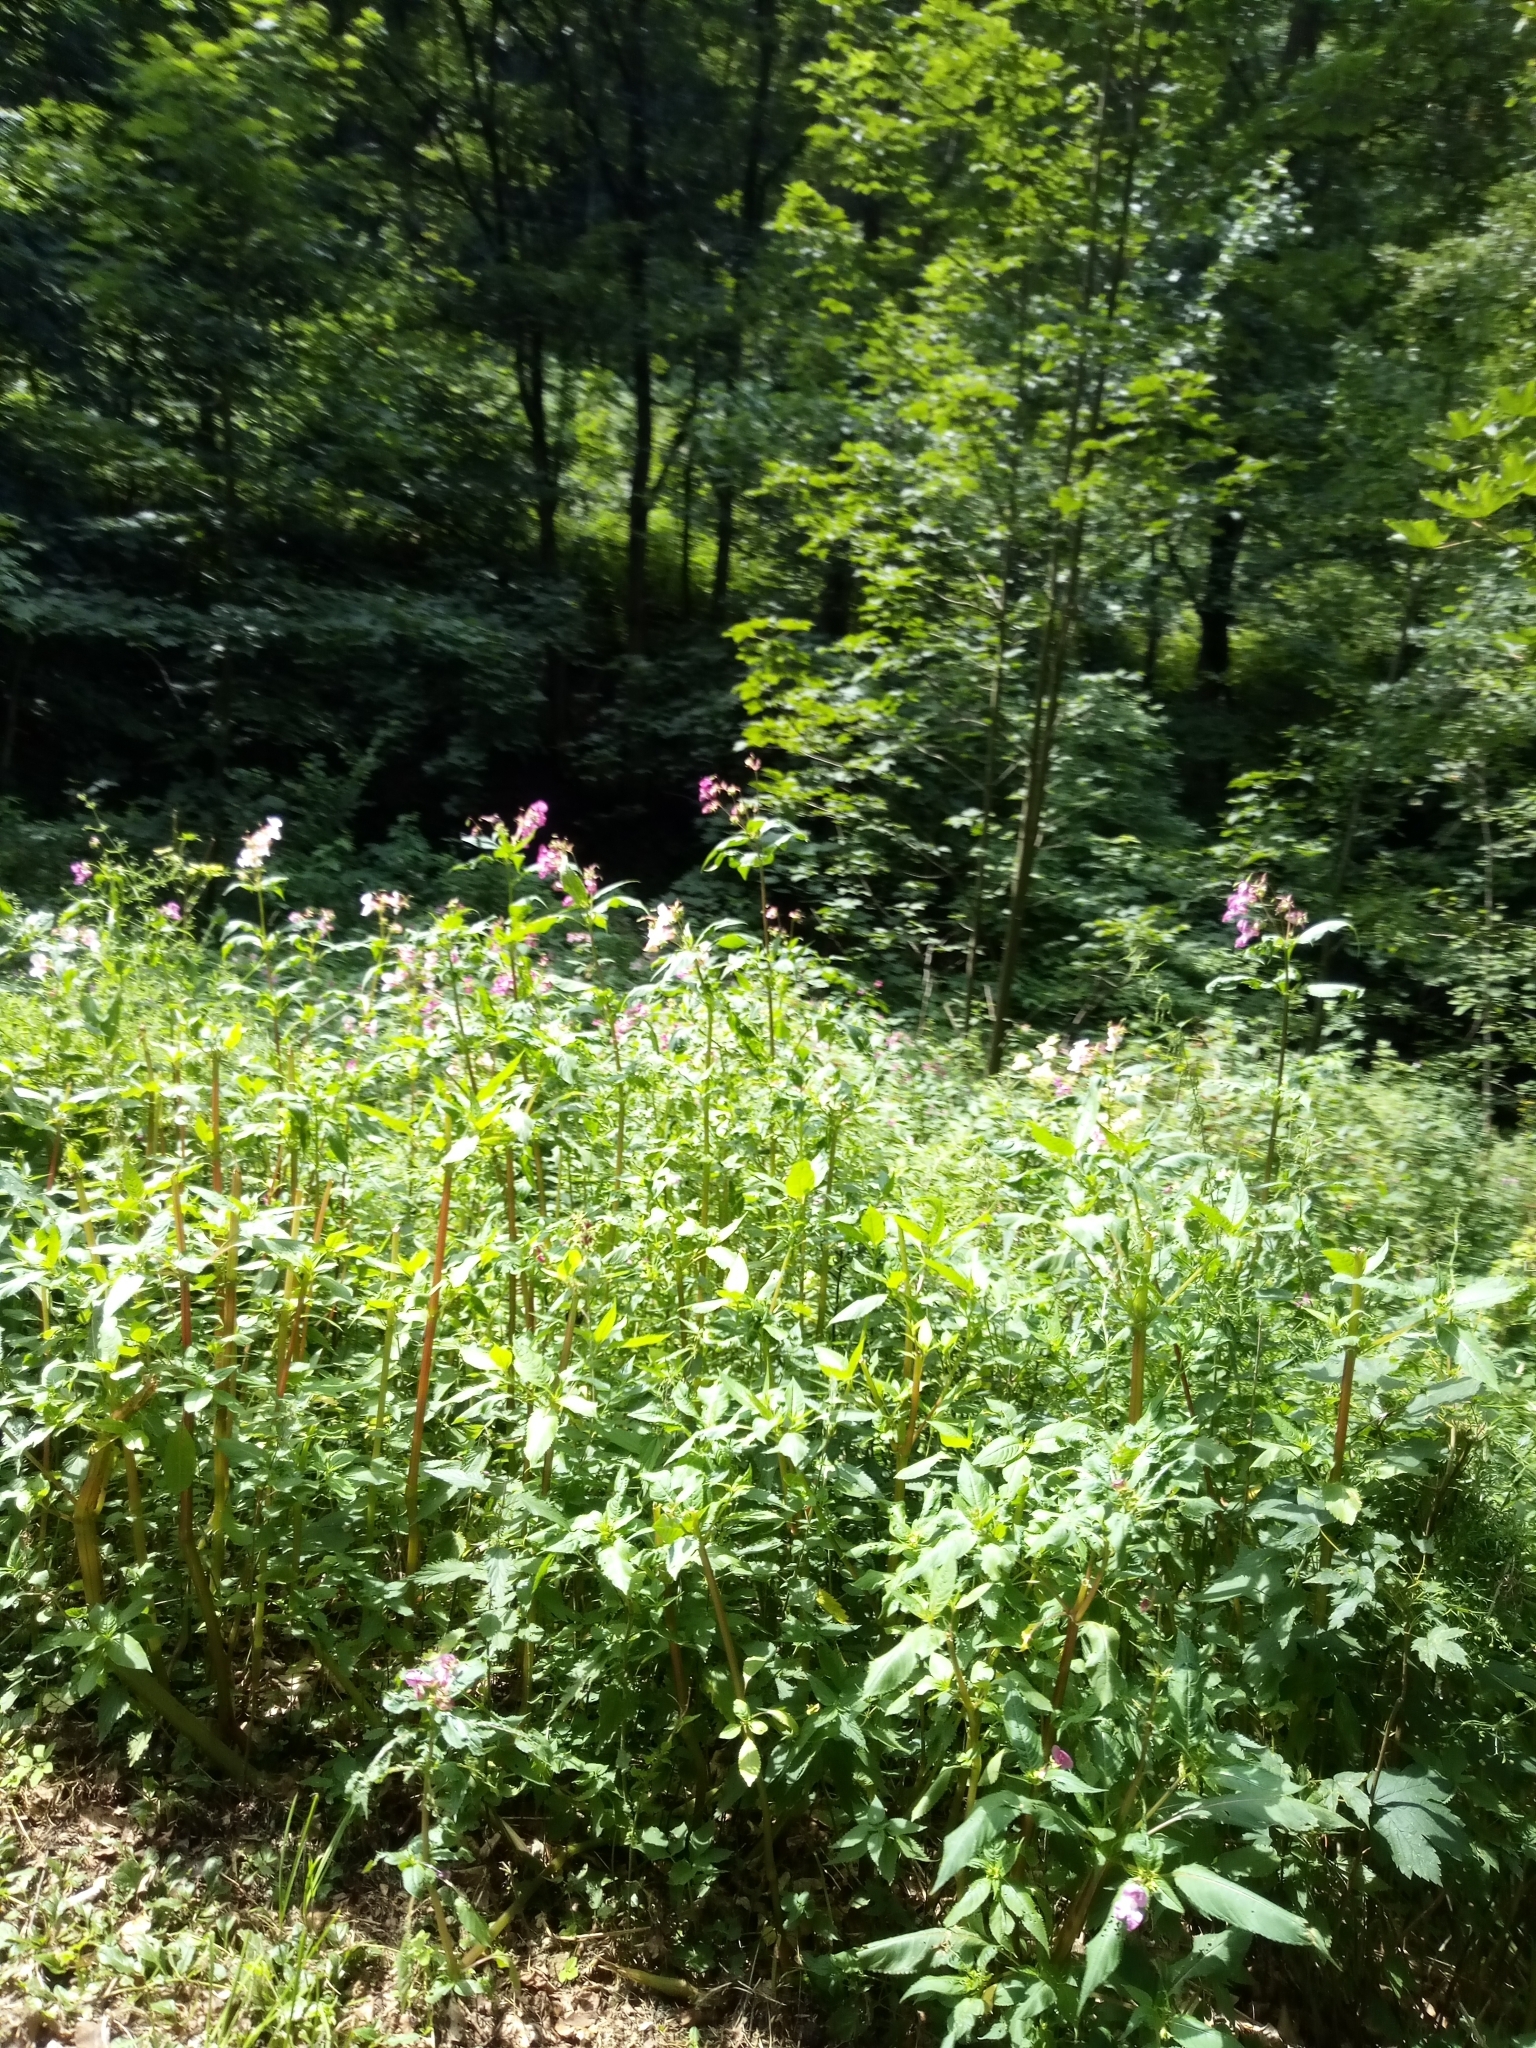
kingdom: Plantae
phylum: Tracheophyta
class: Magnoliopsida
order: Ericales
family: Balsaminaceae
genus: Impatiens
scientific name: Impatiens glandulifera
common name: Himalayan balsam
